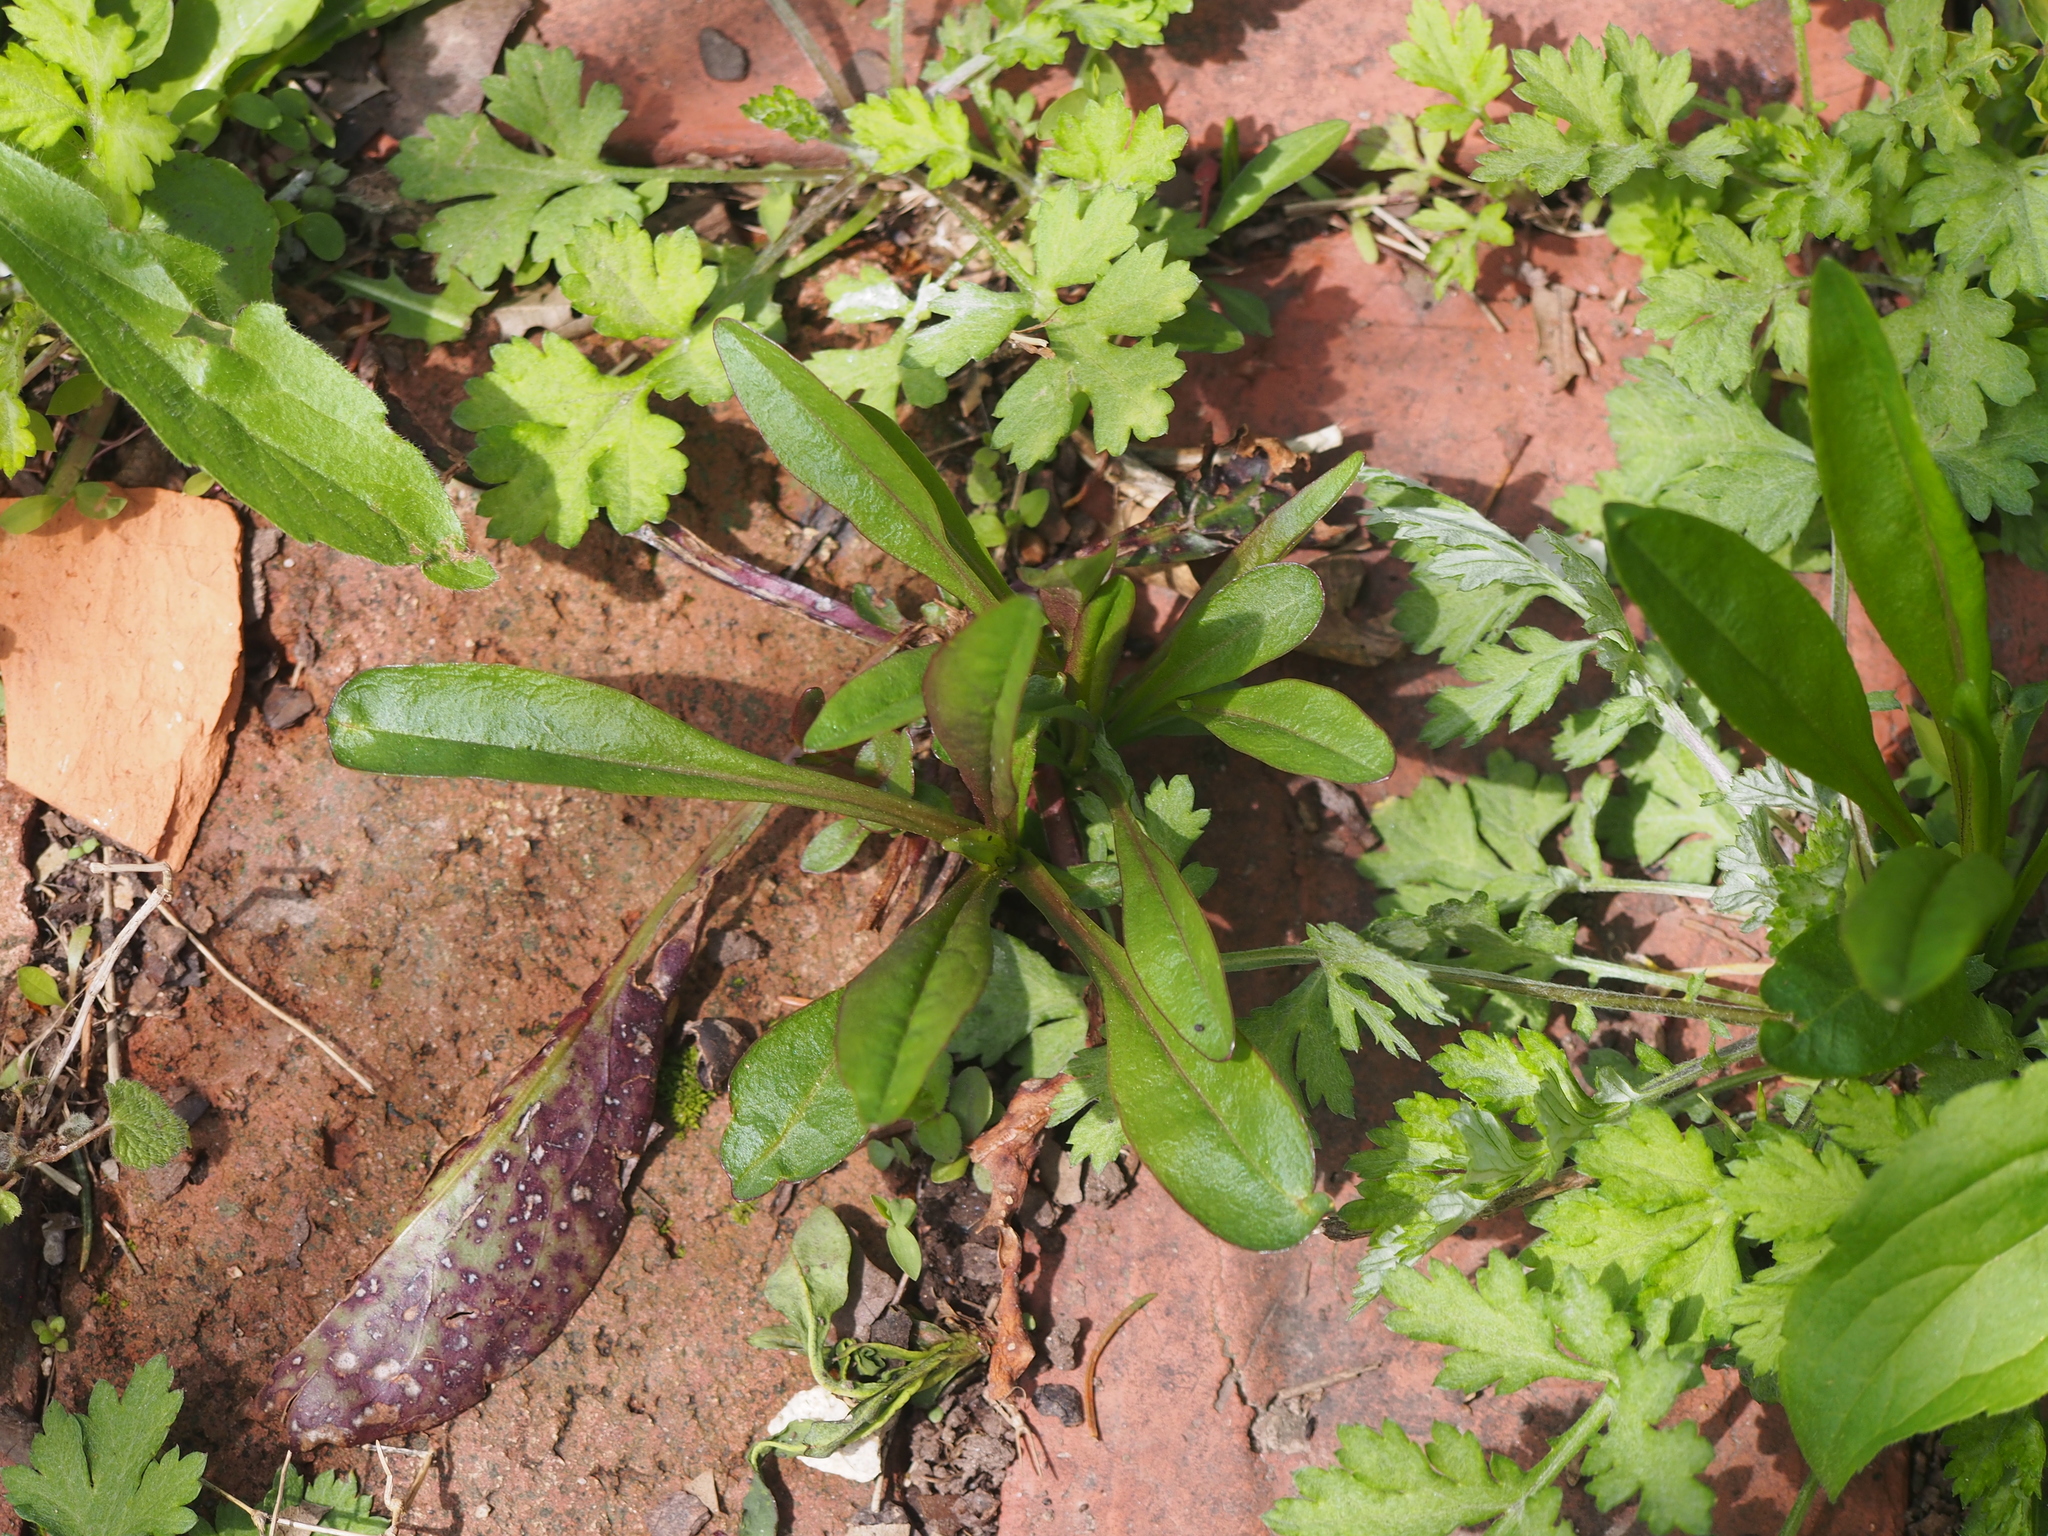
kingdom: Plantae
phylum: Tracheophyta
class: Magnoliopsida
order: Lamiales
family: Plantaginaceae
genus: Penstemon
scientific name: Penstemon digitalis
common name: Foxglove beardtongue
